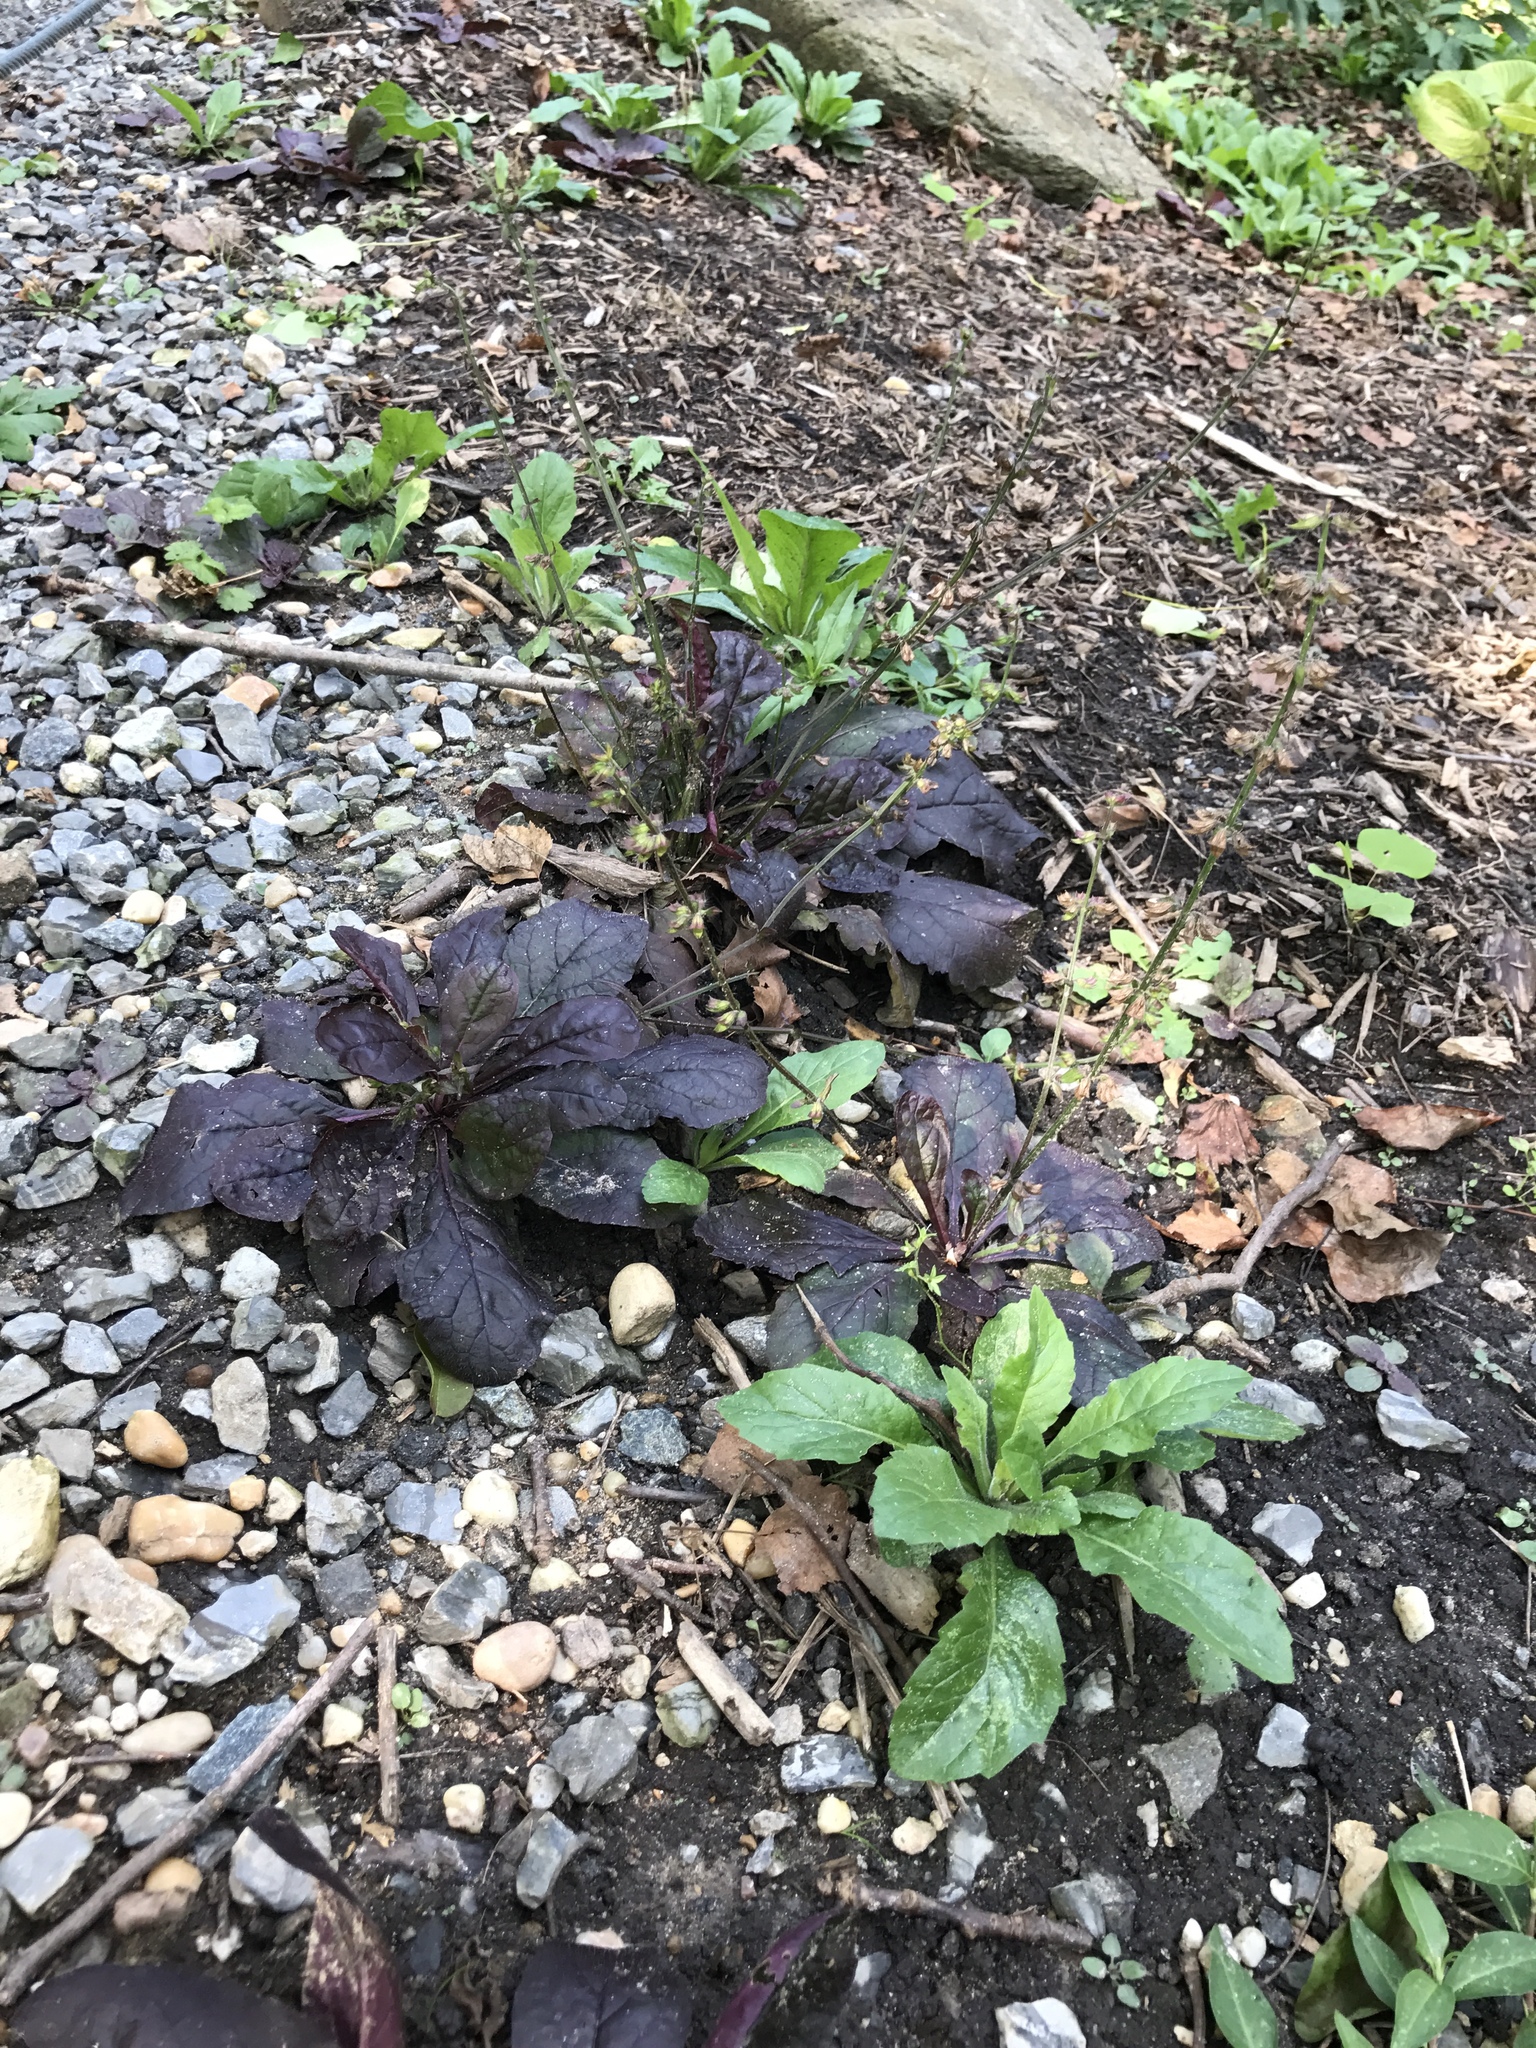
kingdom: Plantae
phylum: Tracheophyta
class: Magnoliopsida
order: Lamiales
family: Lamiaceae
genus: Salvia
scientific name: Salvia lyrata
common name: Cancerweed
